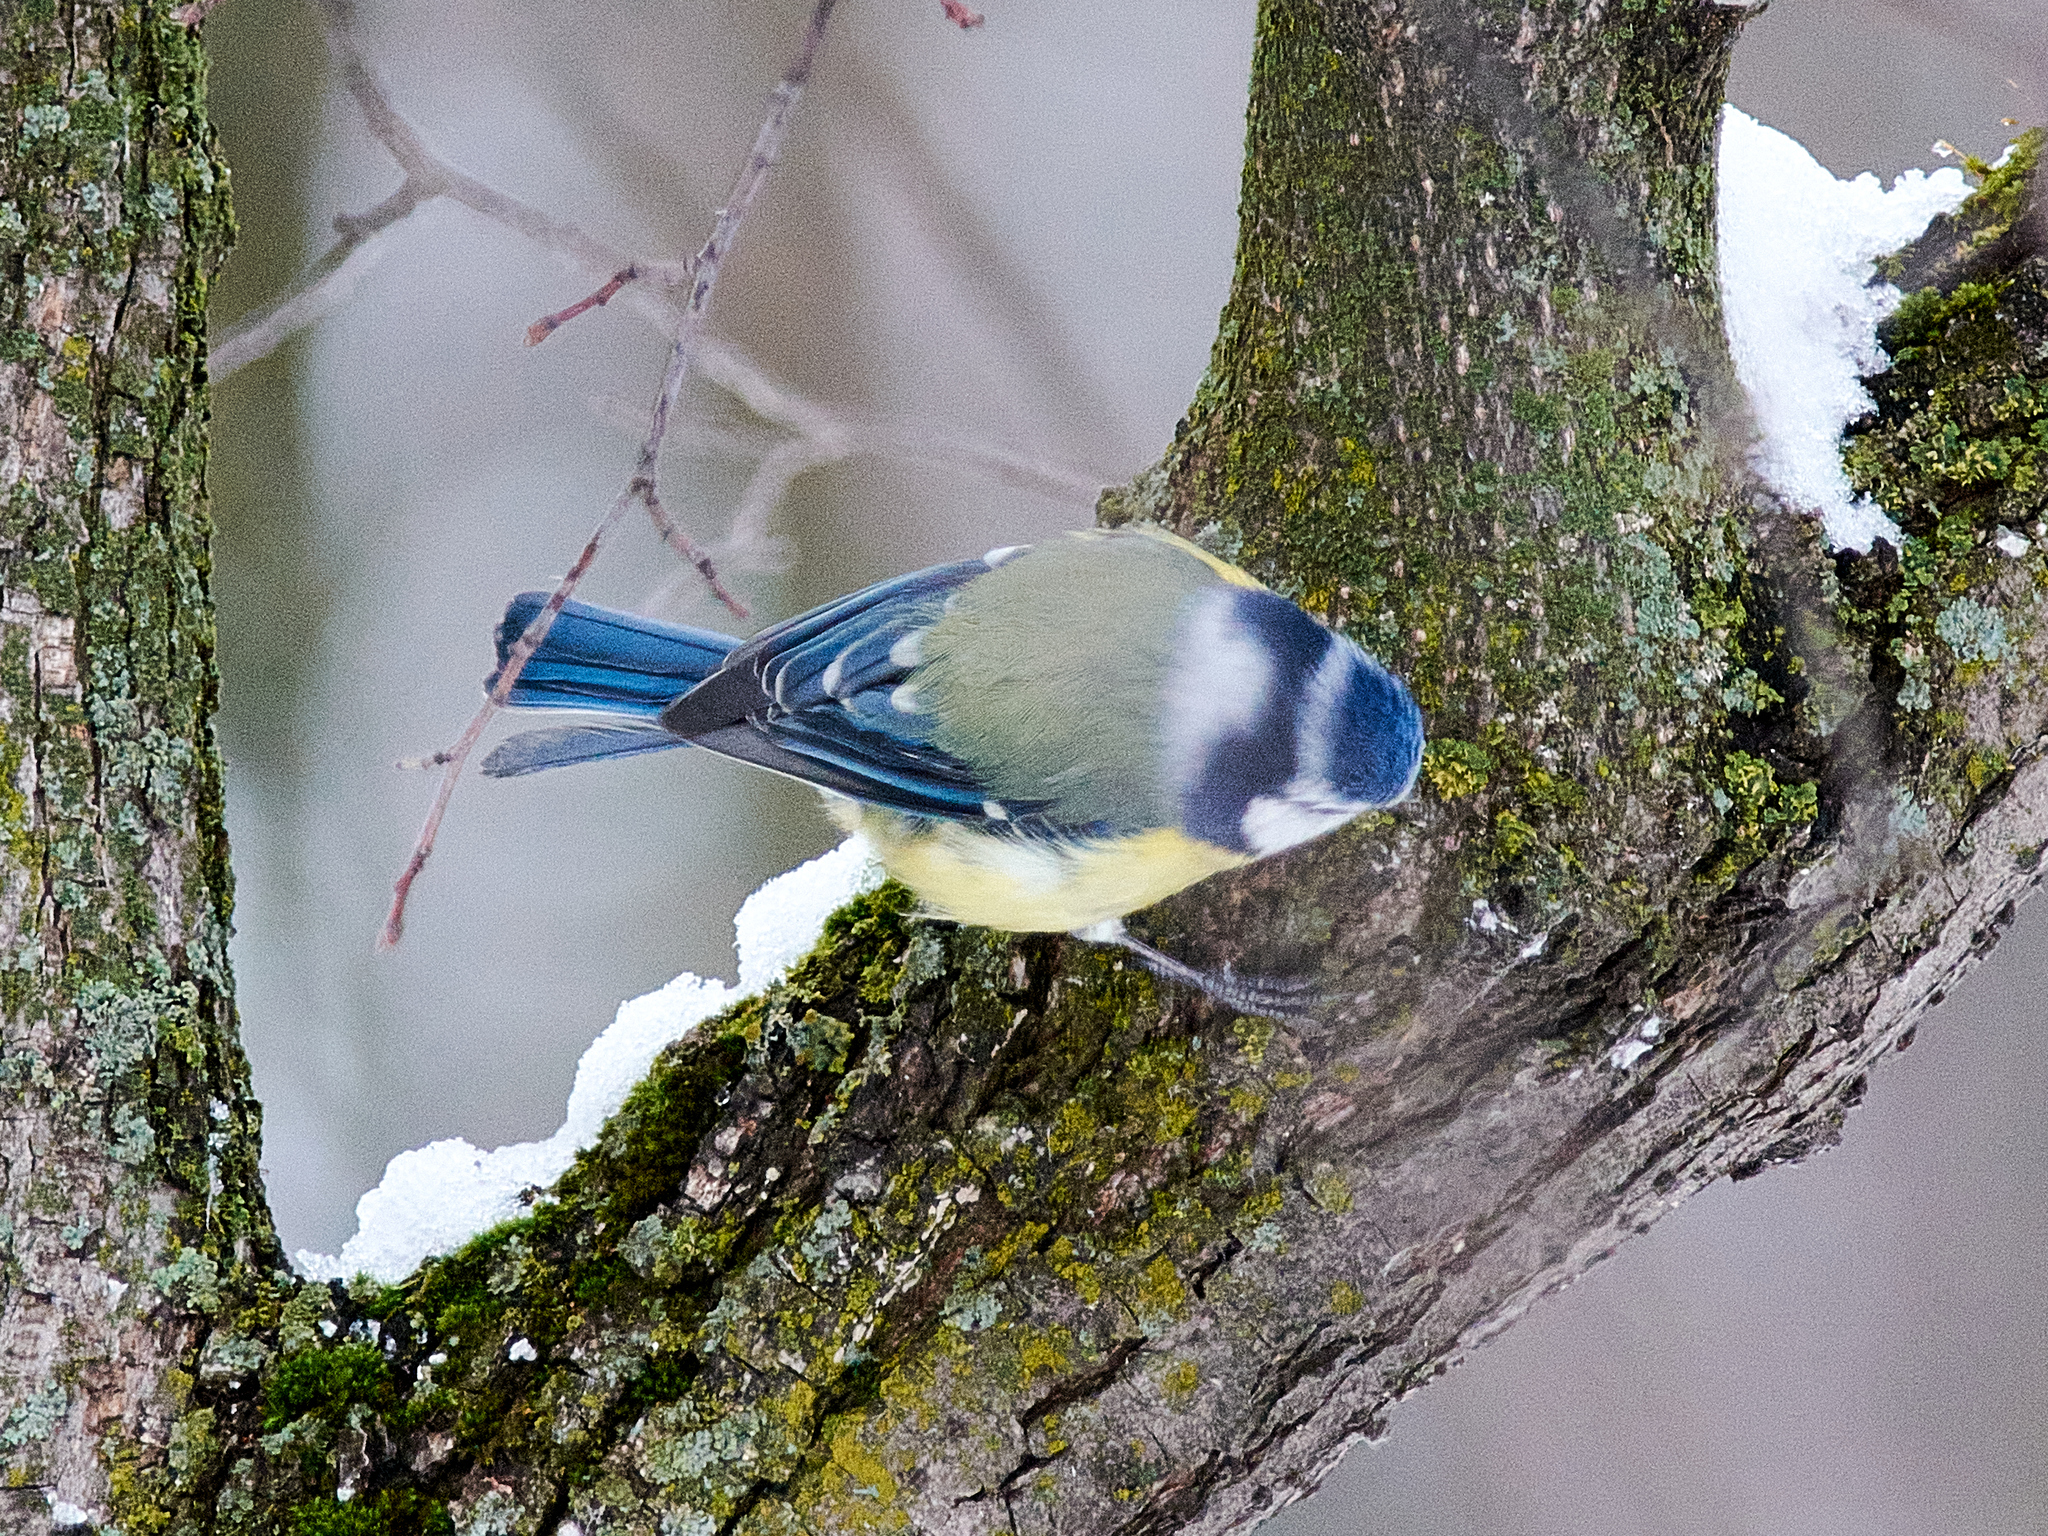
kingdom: Animalia
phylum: Chordata
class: Aves
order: Passeriformes
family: Paridae
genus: Cyanistes
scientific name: Cyanistes caeruleus
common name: Eurasian blue tit
